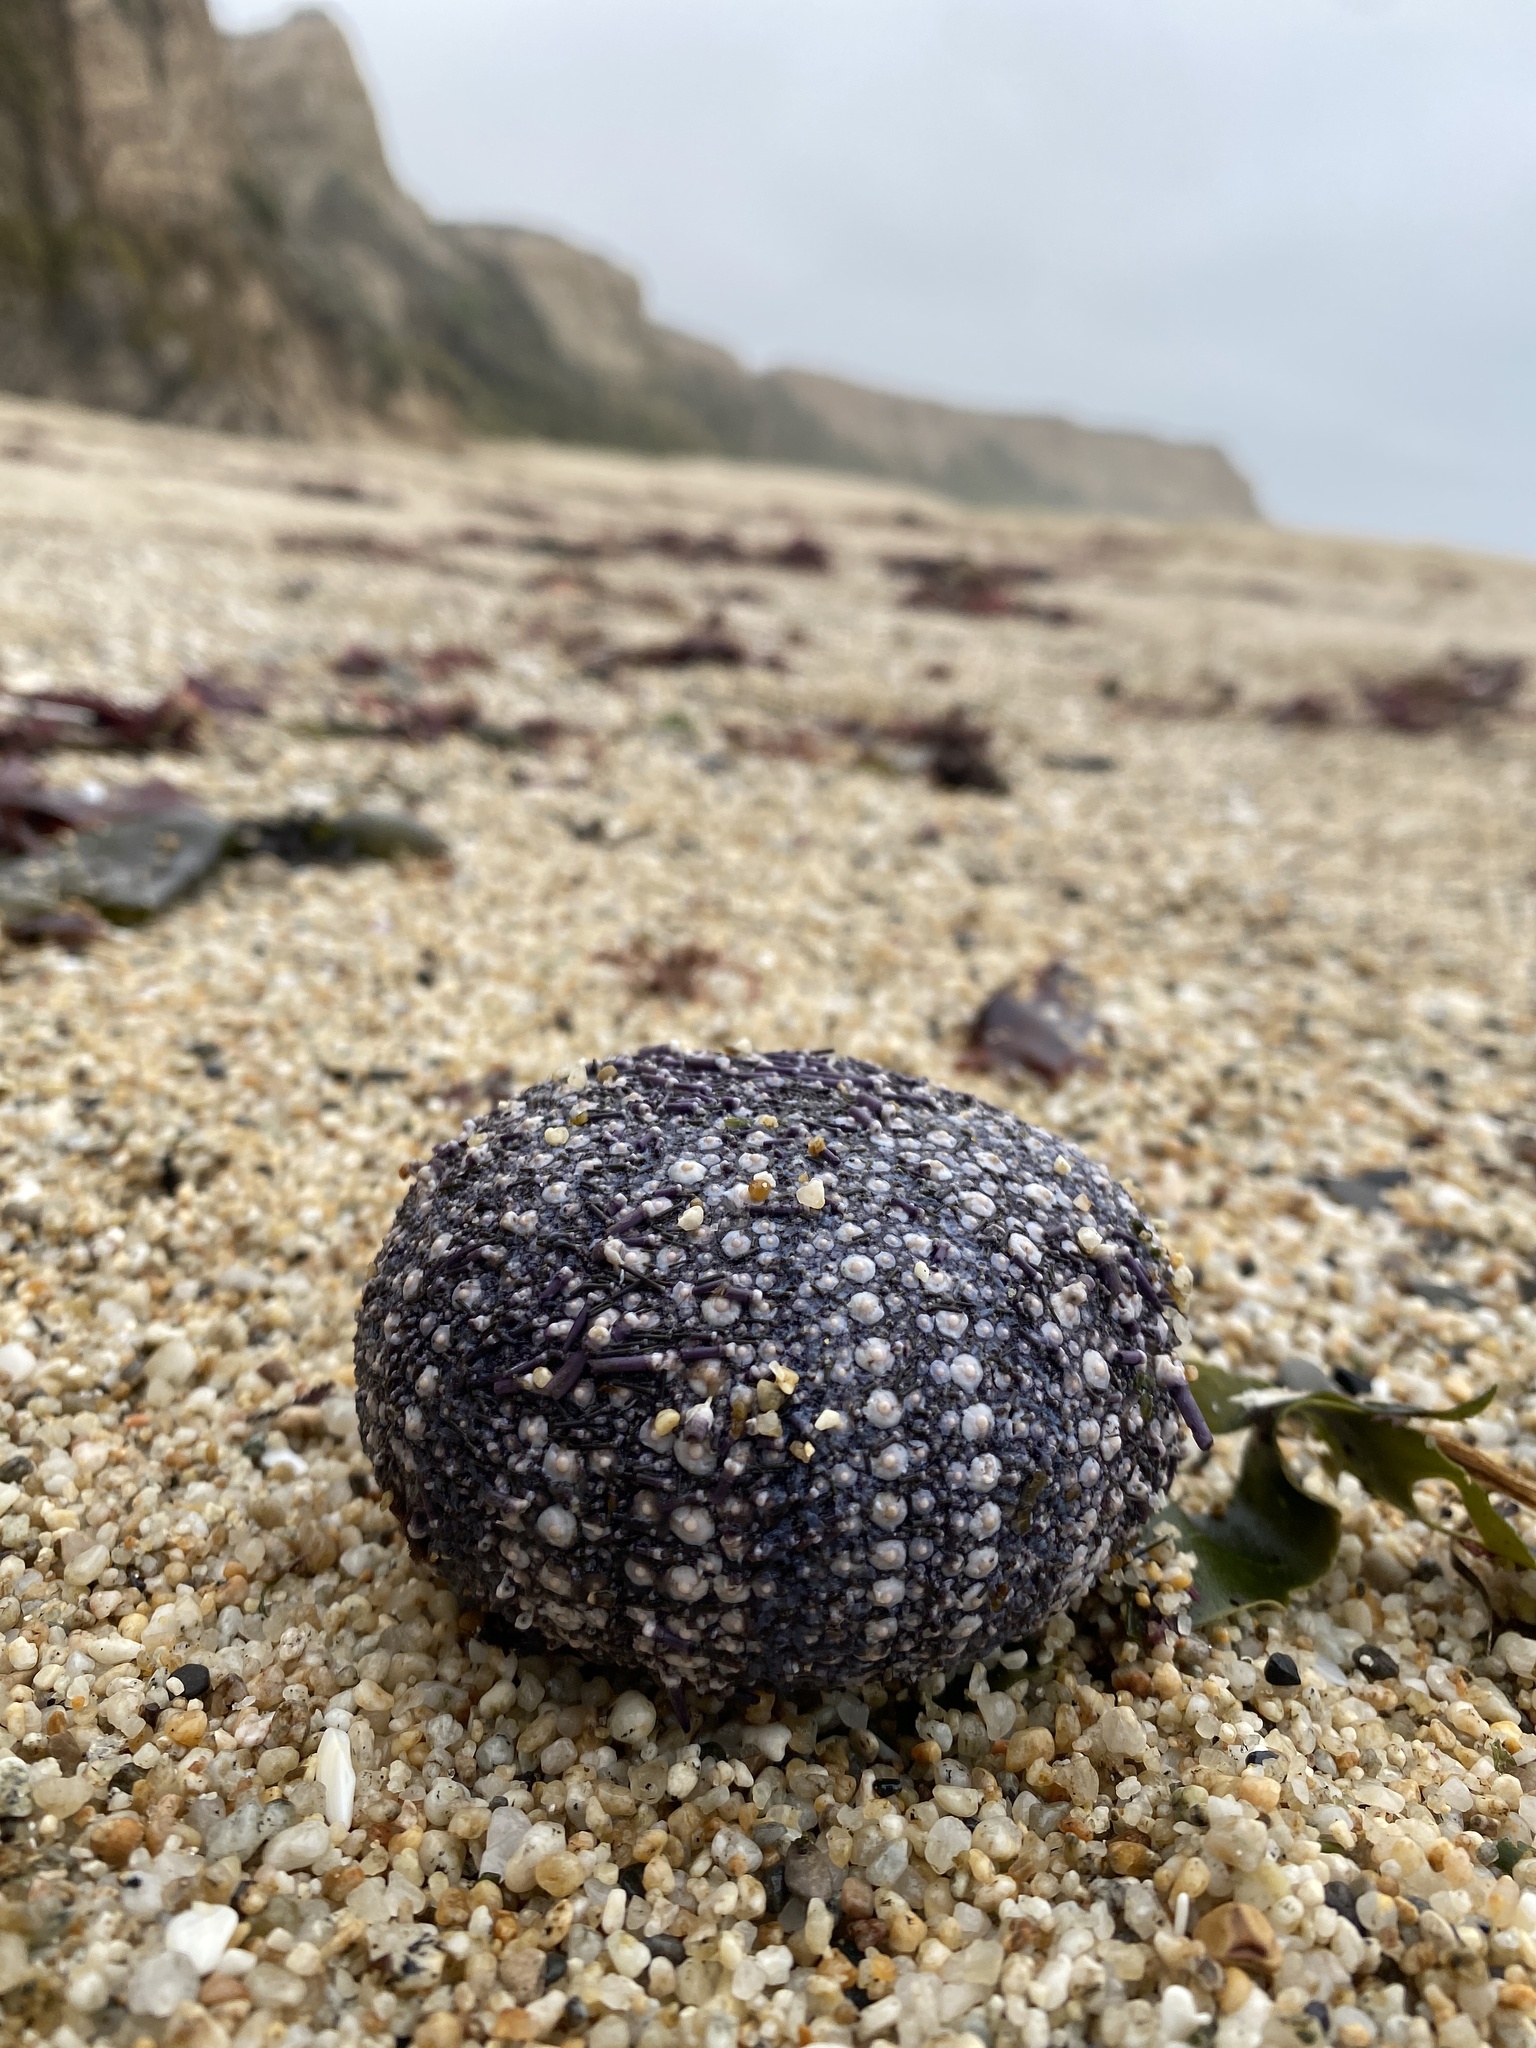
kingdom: Animalia
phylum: Echinodermata
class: Echinoidea
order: Camarodonta
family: Strongylocentrotidae
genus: Strongylocentrotus
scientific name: Strongylocentrotus purpuratus
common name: Purple sea urchin
